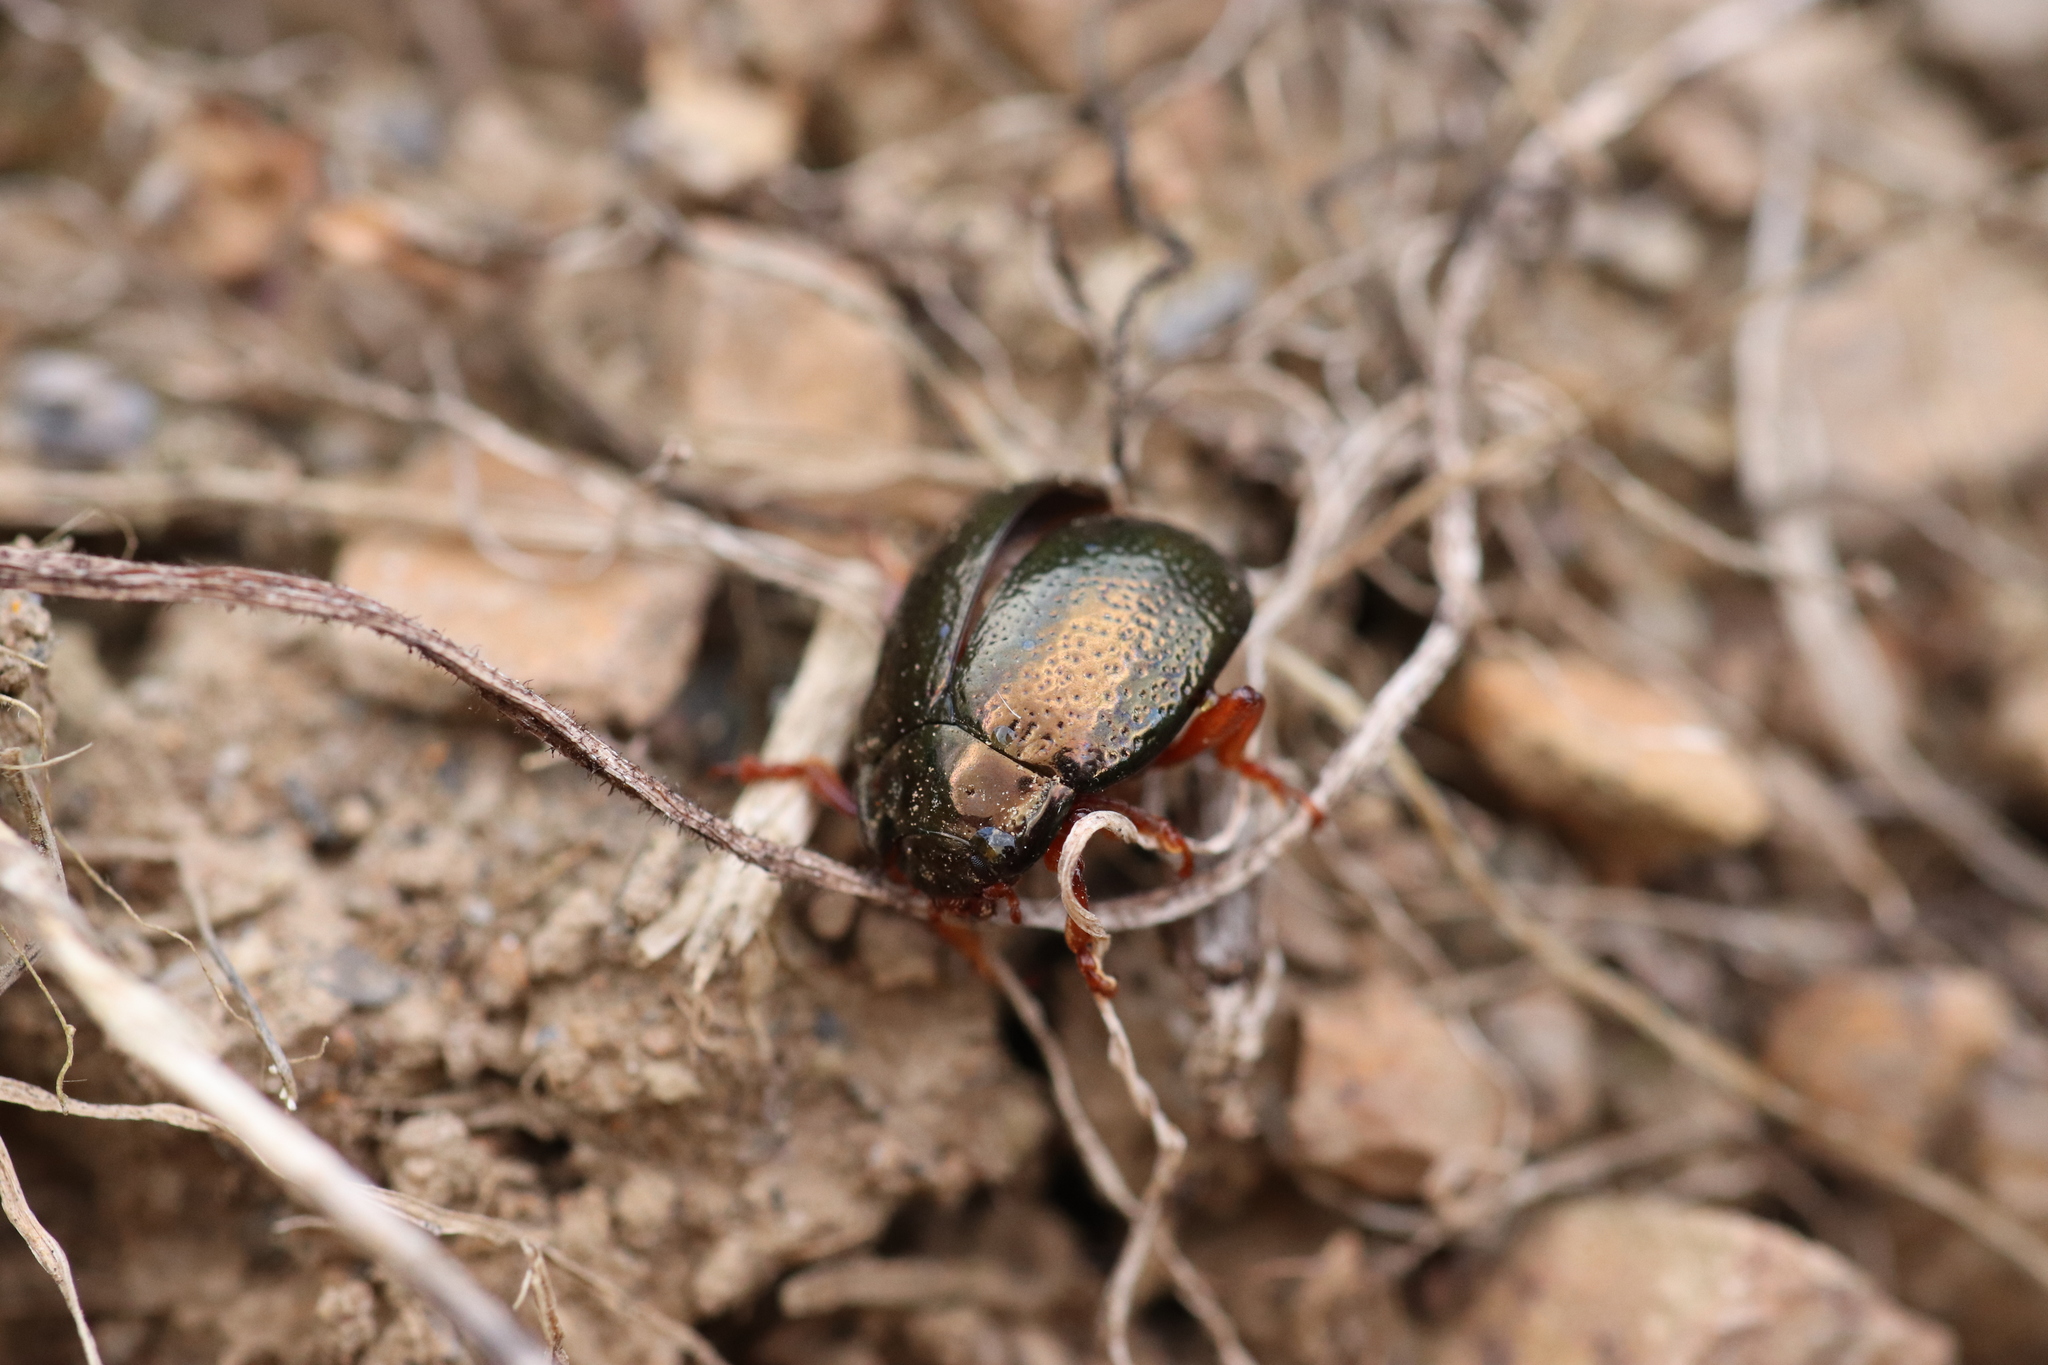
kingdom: Animalia
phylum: Arthropoda
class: Insecta
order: Coleoptera
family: Chrysomelidae
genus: Chrysolina
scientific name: Chrysolina bankii
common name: Leaf beetle
